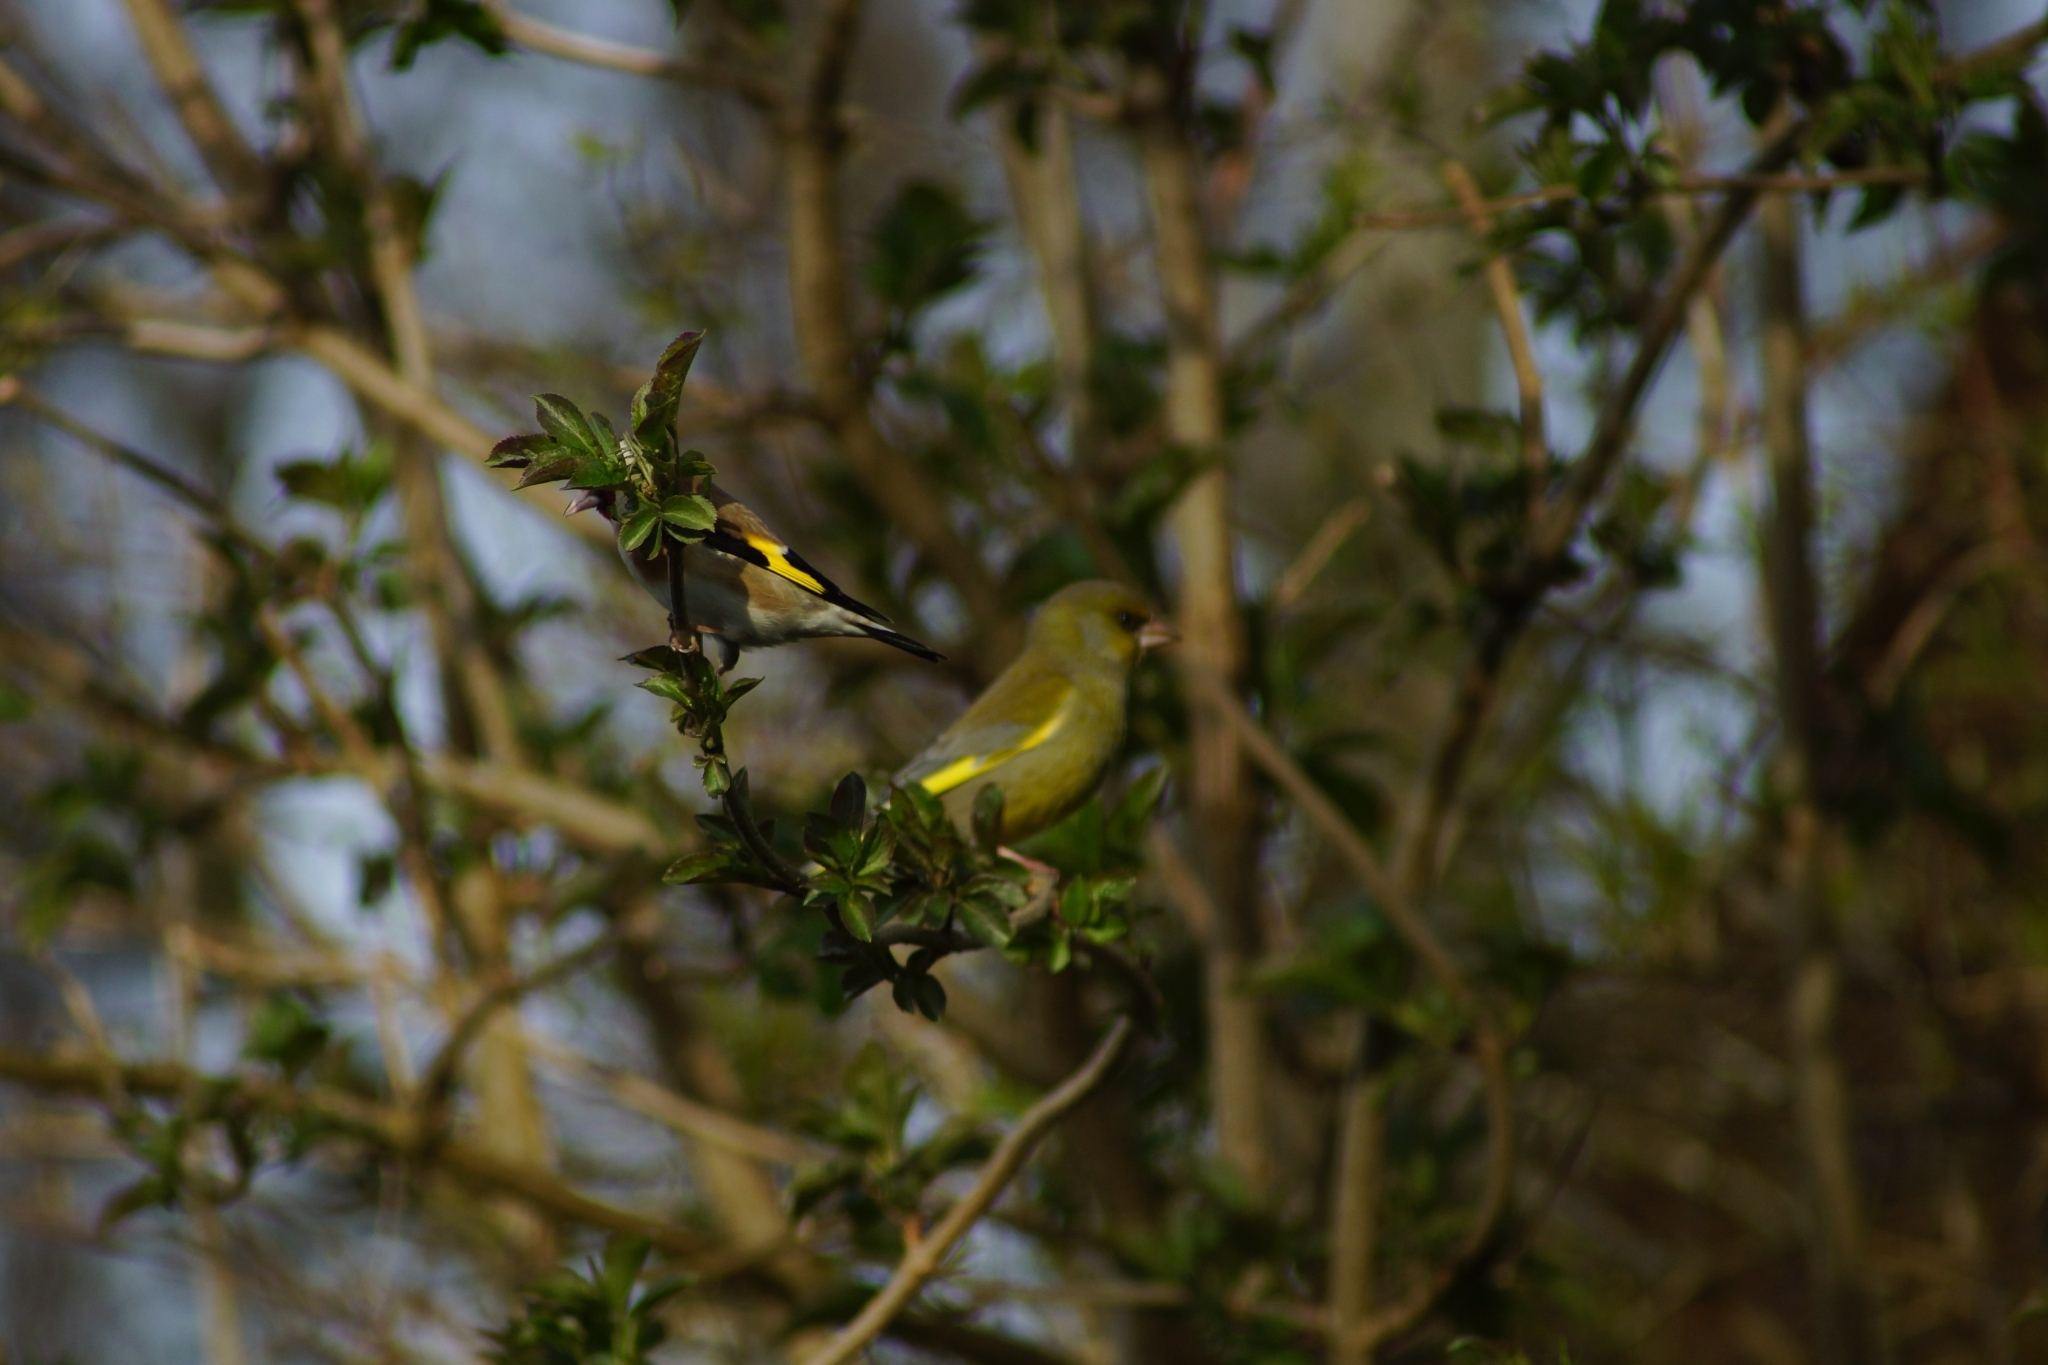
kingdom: Plantae
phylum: Tracheophyta
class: Liliopsida
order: Poales
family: Poaceae
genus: Chloris
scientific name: Chloris chloris
